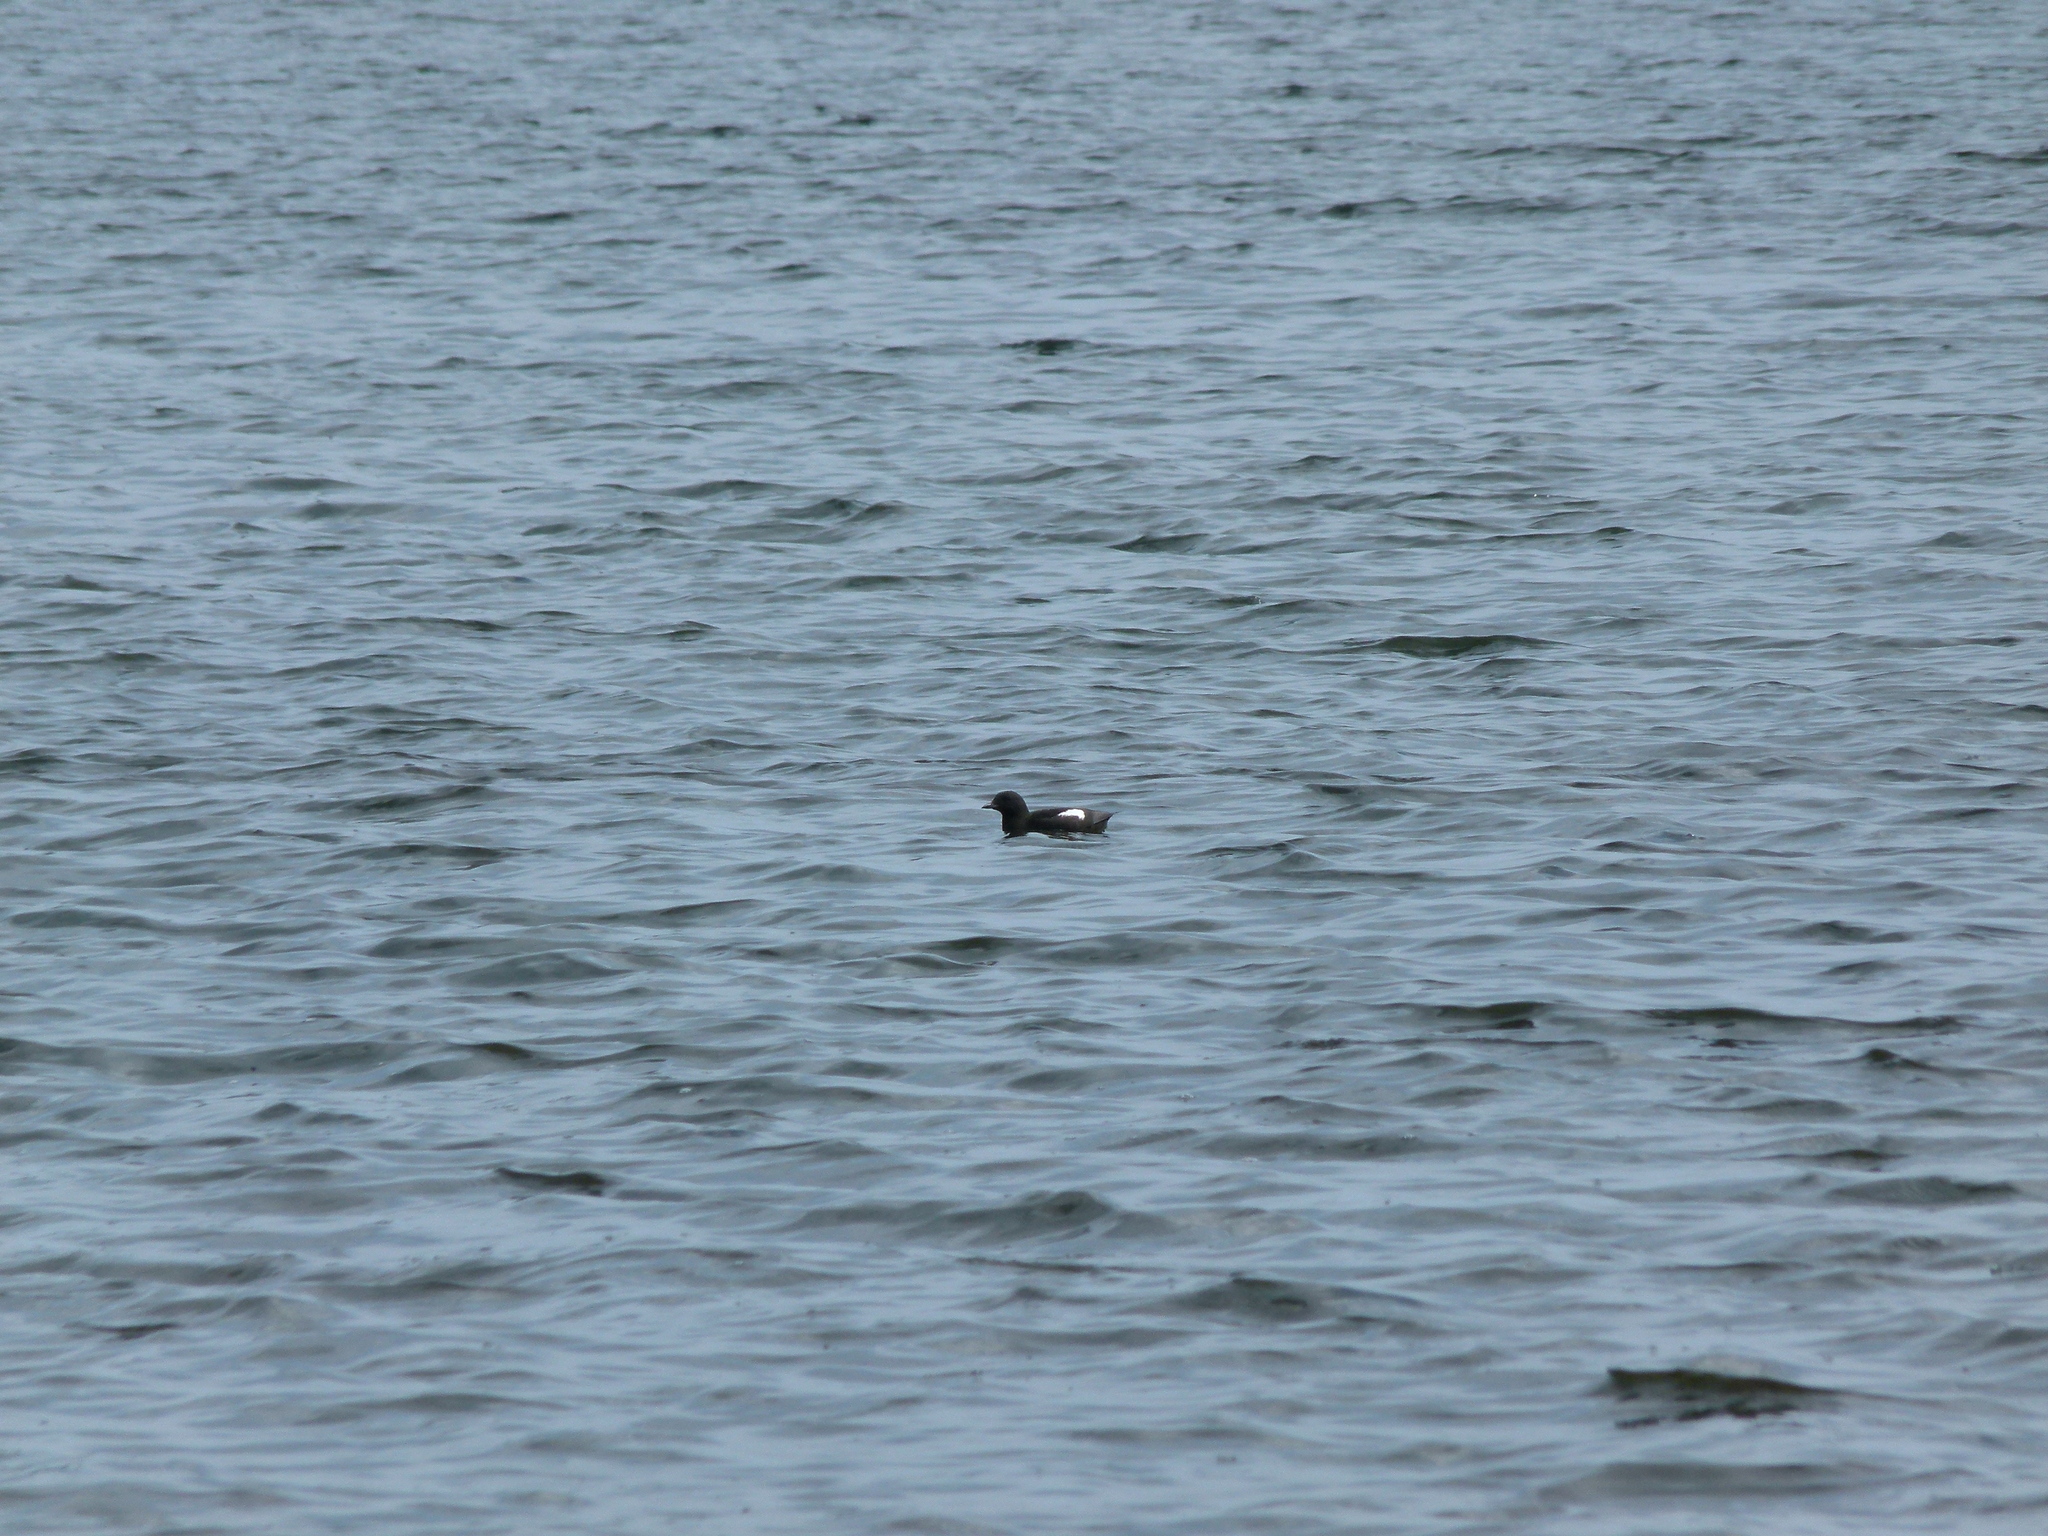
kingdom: Animalia
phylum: Chordata
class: Aves
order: Charadriiformes
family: Alcidae
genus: Cepphus
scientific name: Cepphus grylle
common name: Black guillemot
